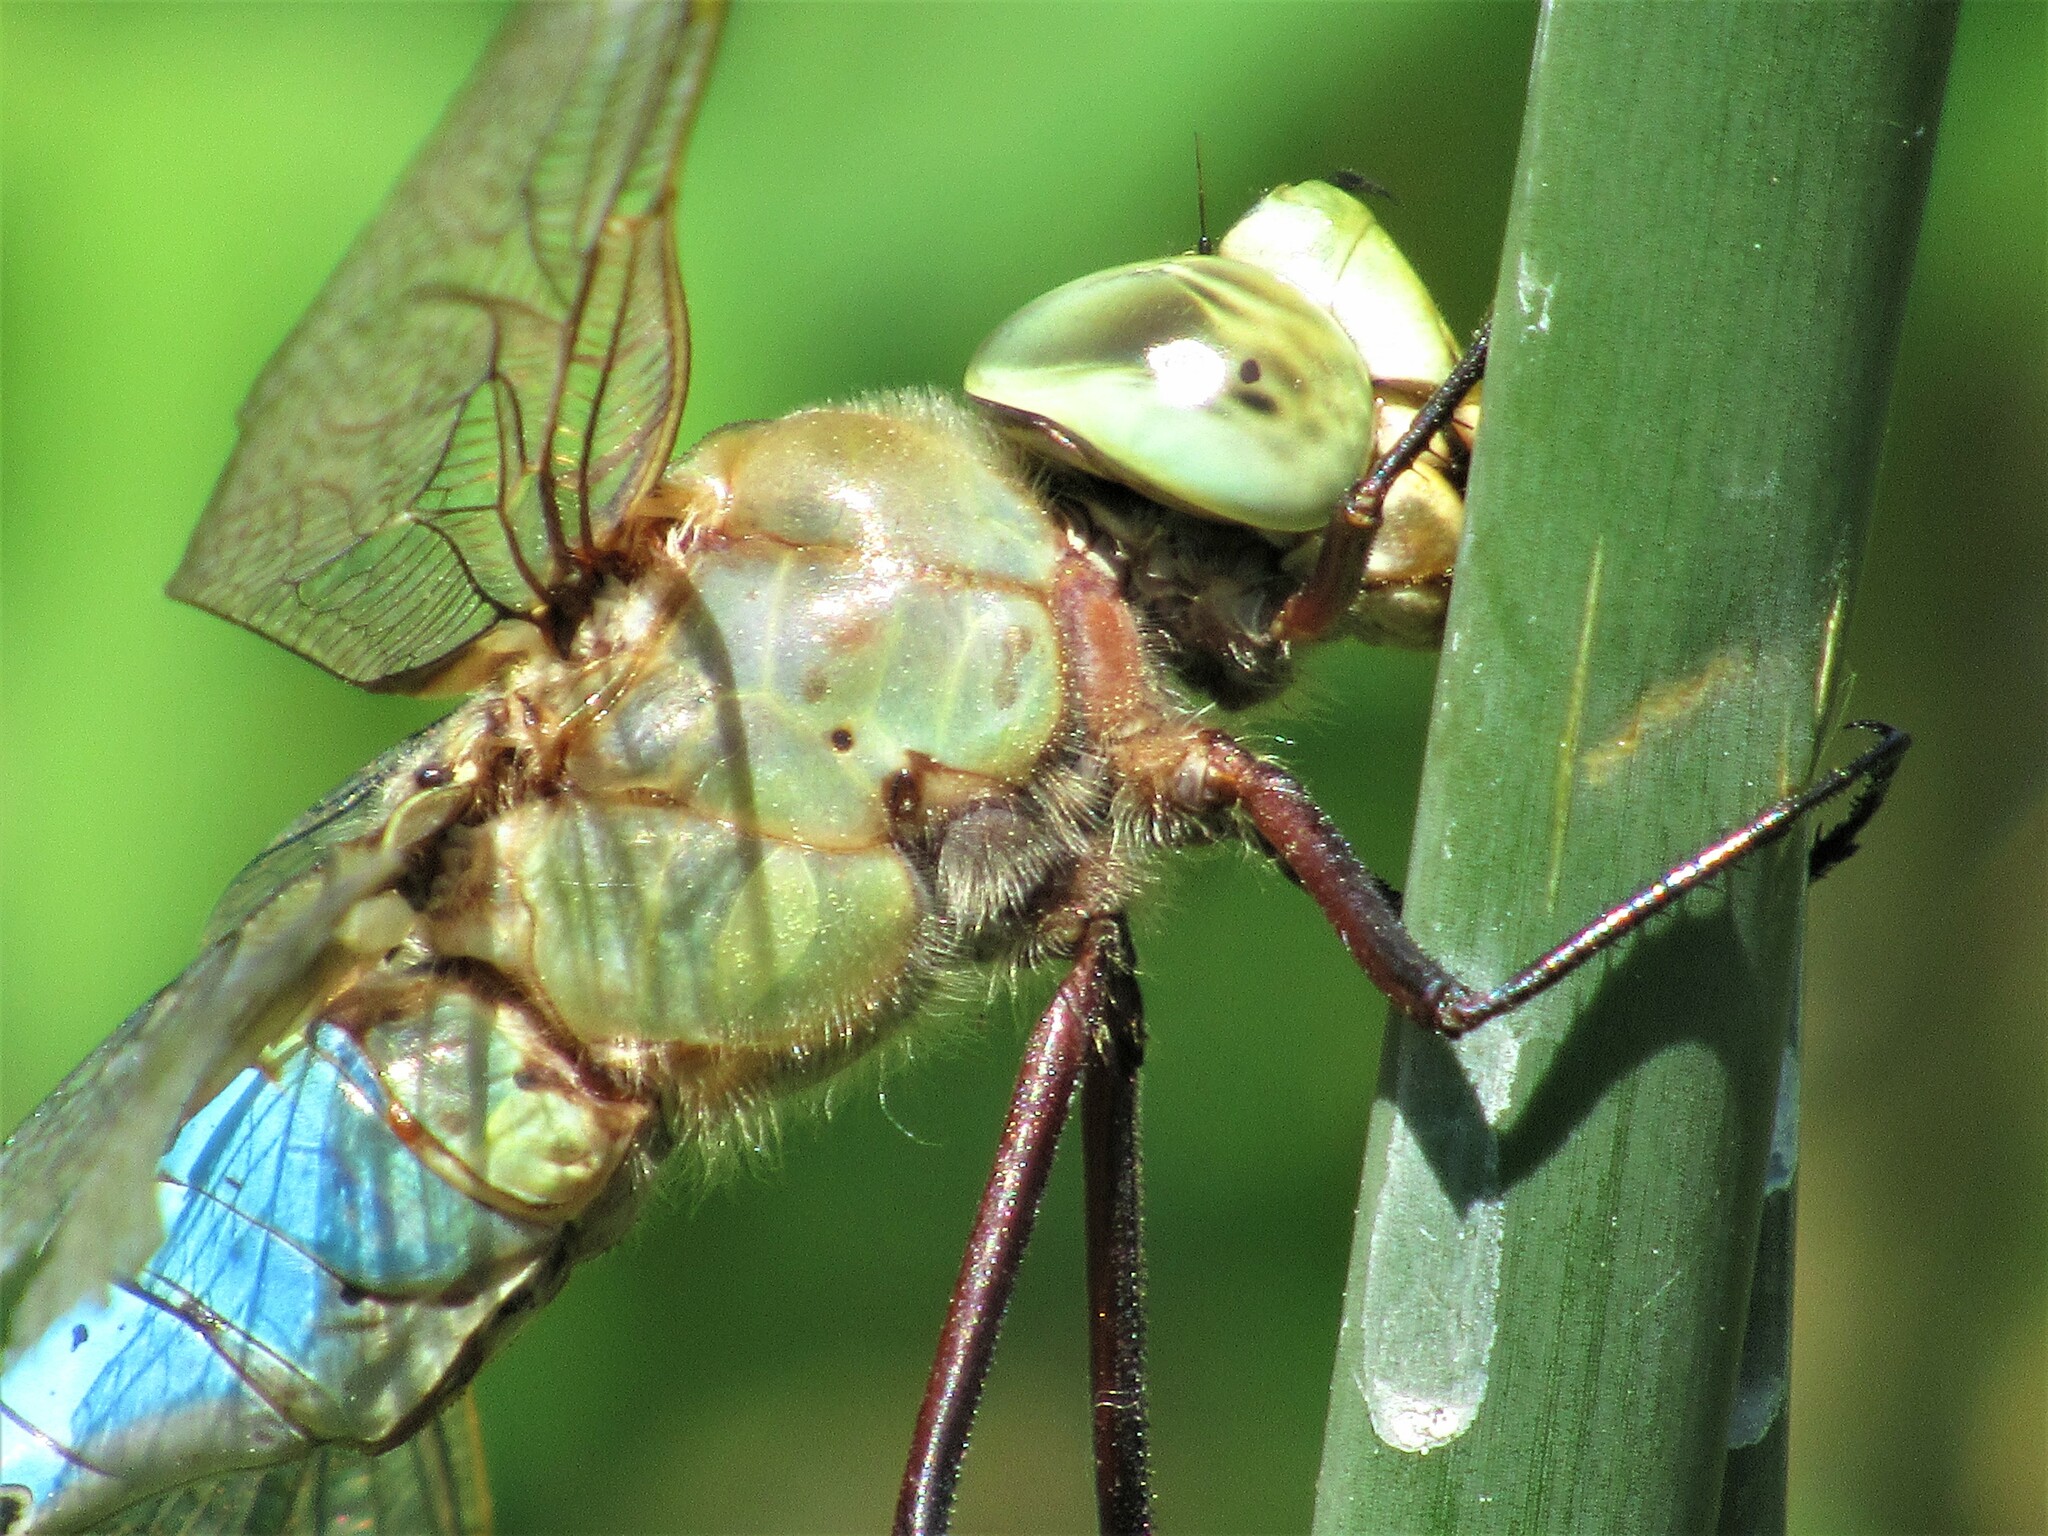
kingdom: Animalia
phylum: Arthropoda
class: Insecta
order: Odonata
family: Aeshnidae
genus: Anax
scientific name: Anax junius
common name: Common green darner
